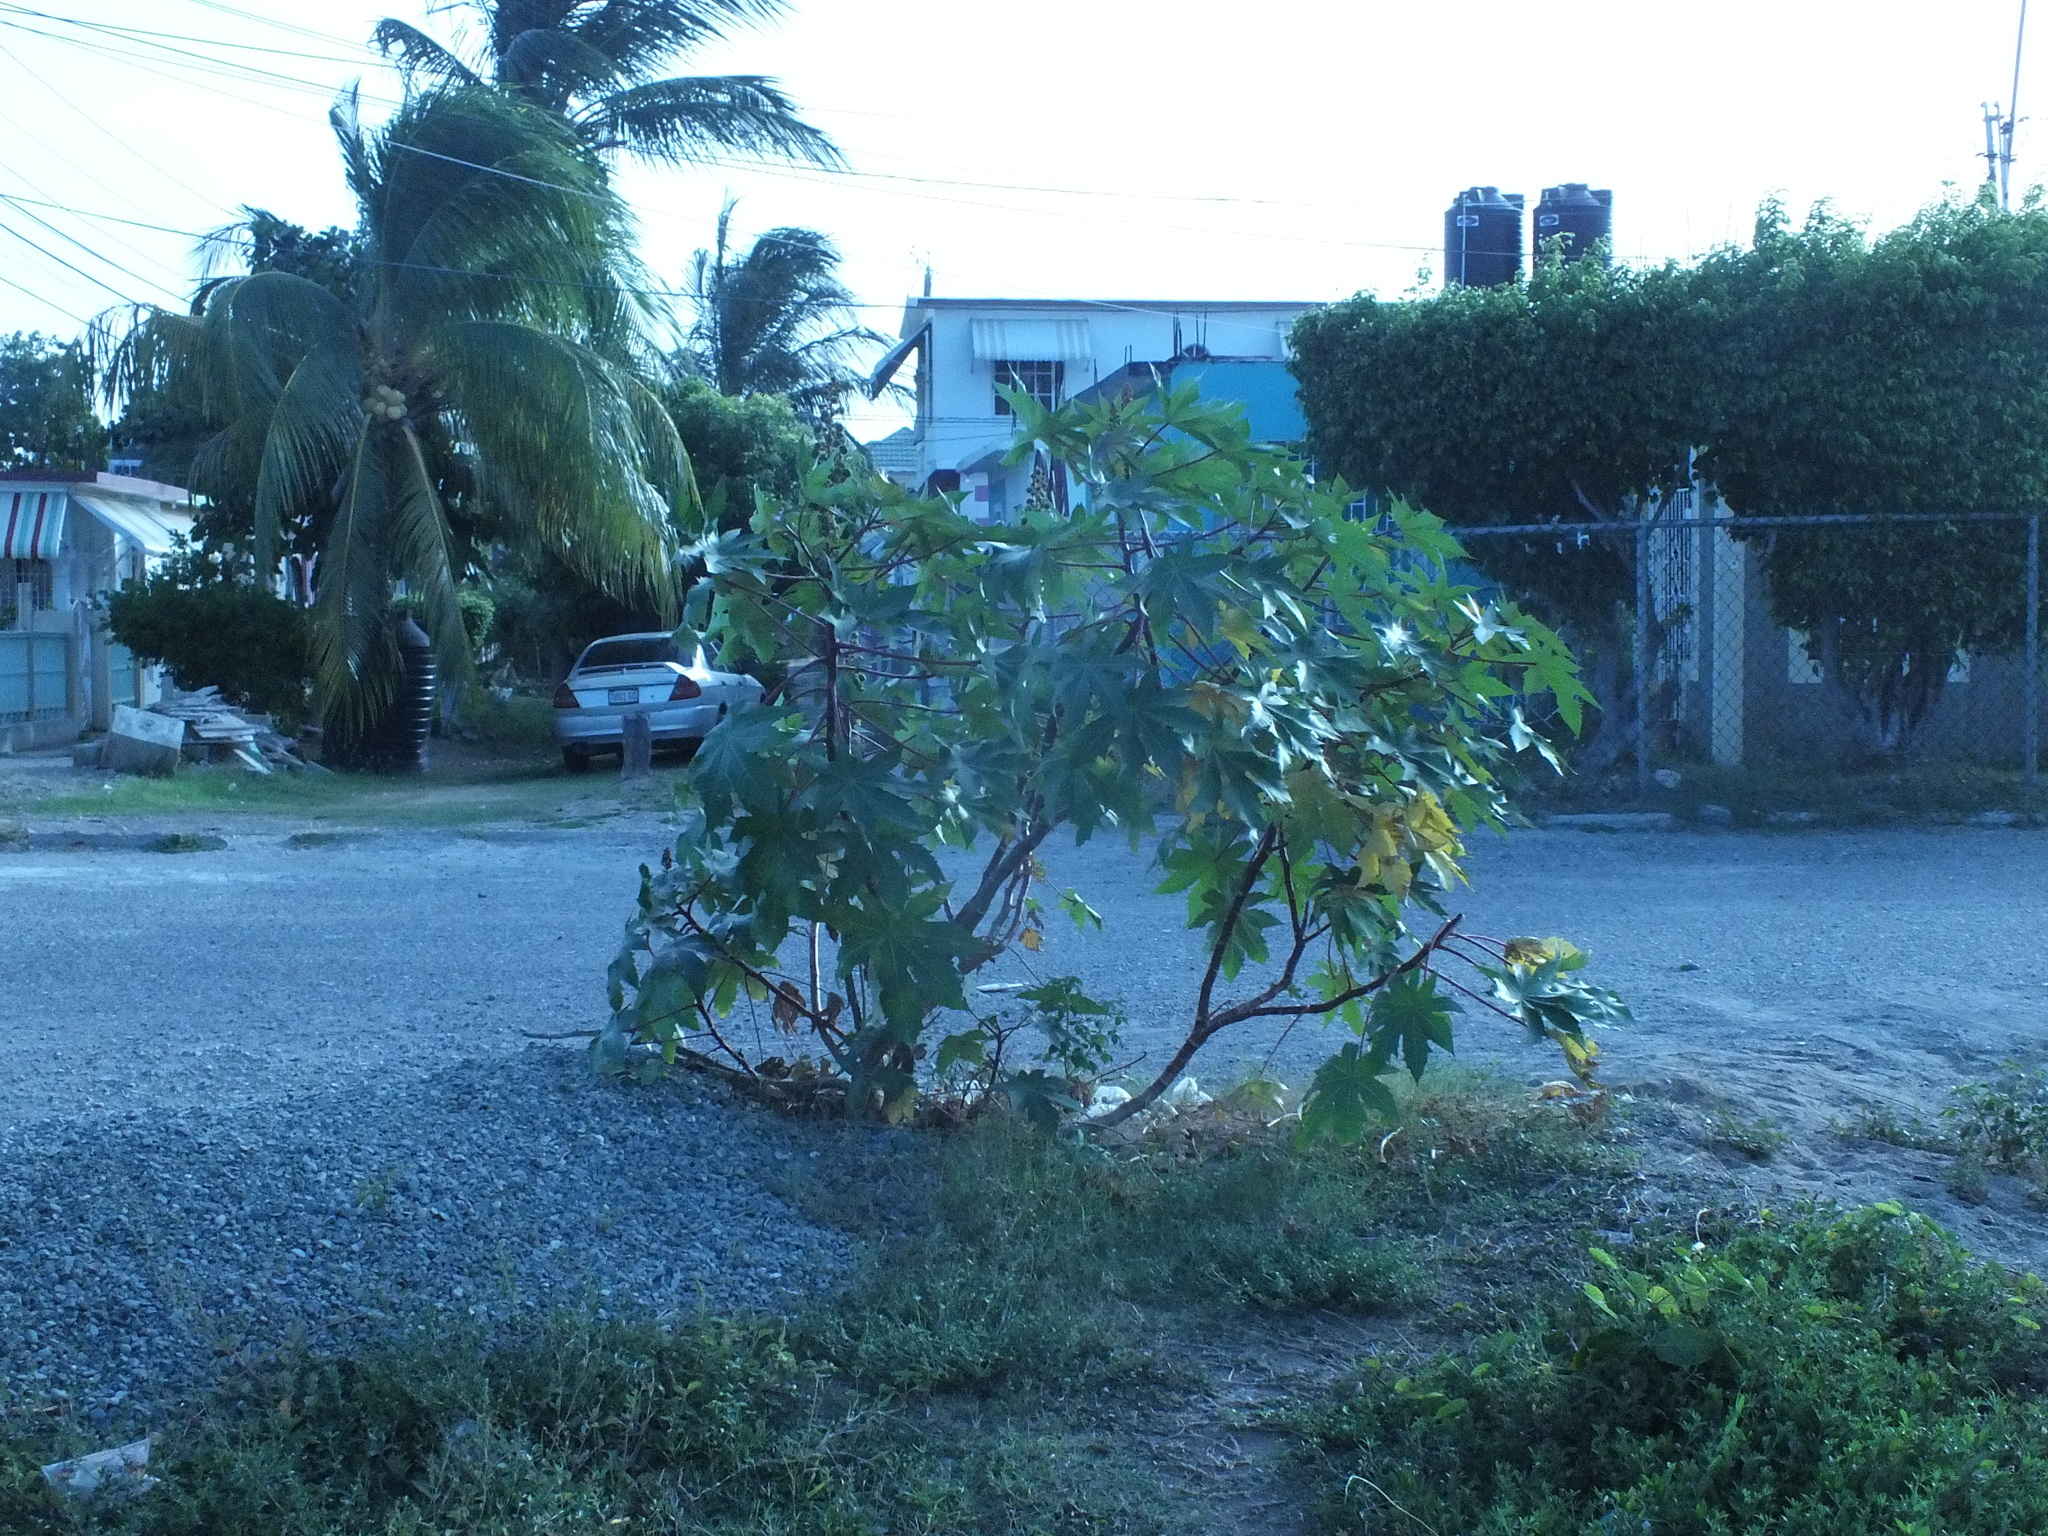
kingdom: Plantae
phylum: Tracheophyta
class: Magnoliopsida
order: Malpighiales
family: Euphorbiaceae
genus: Ricinus
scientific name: Ricinus communis
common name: Castor-oil-plant
